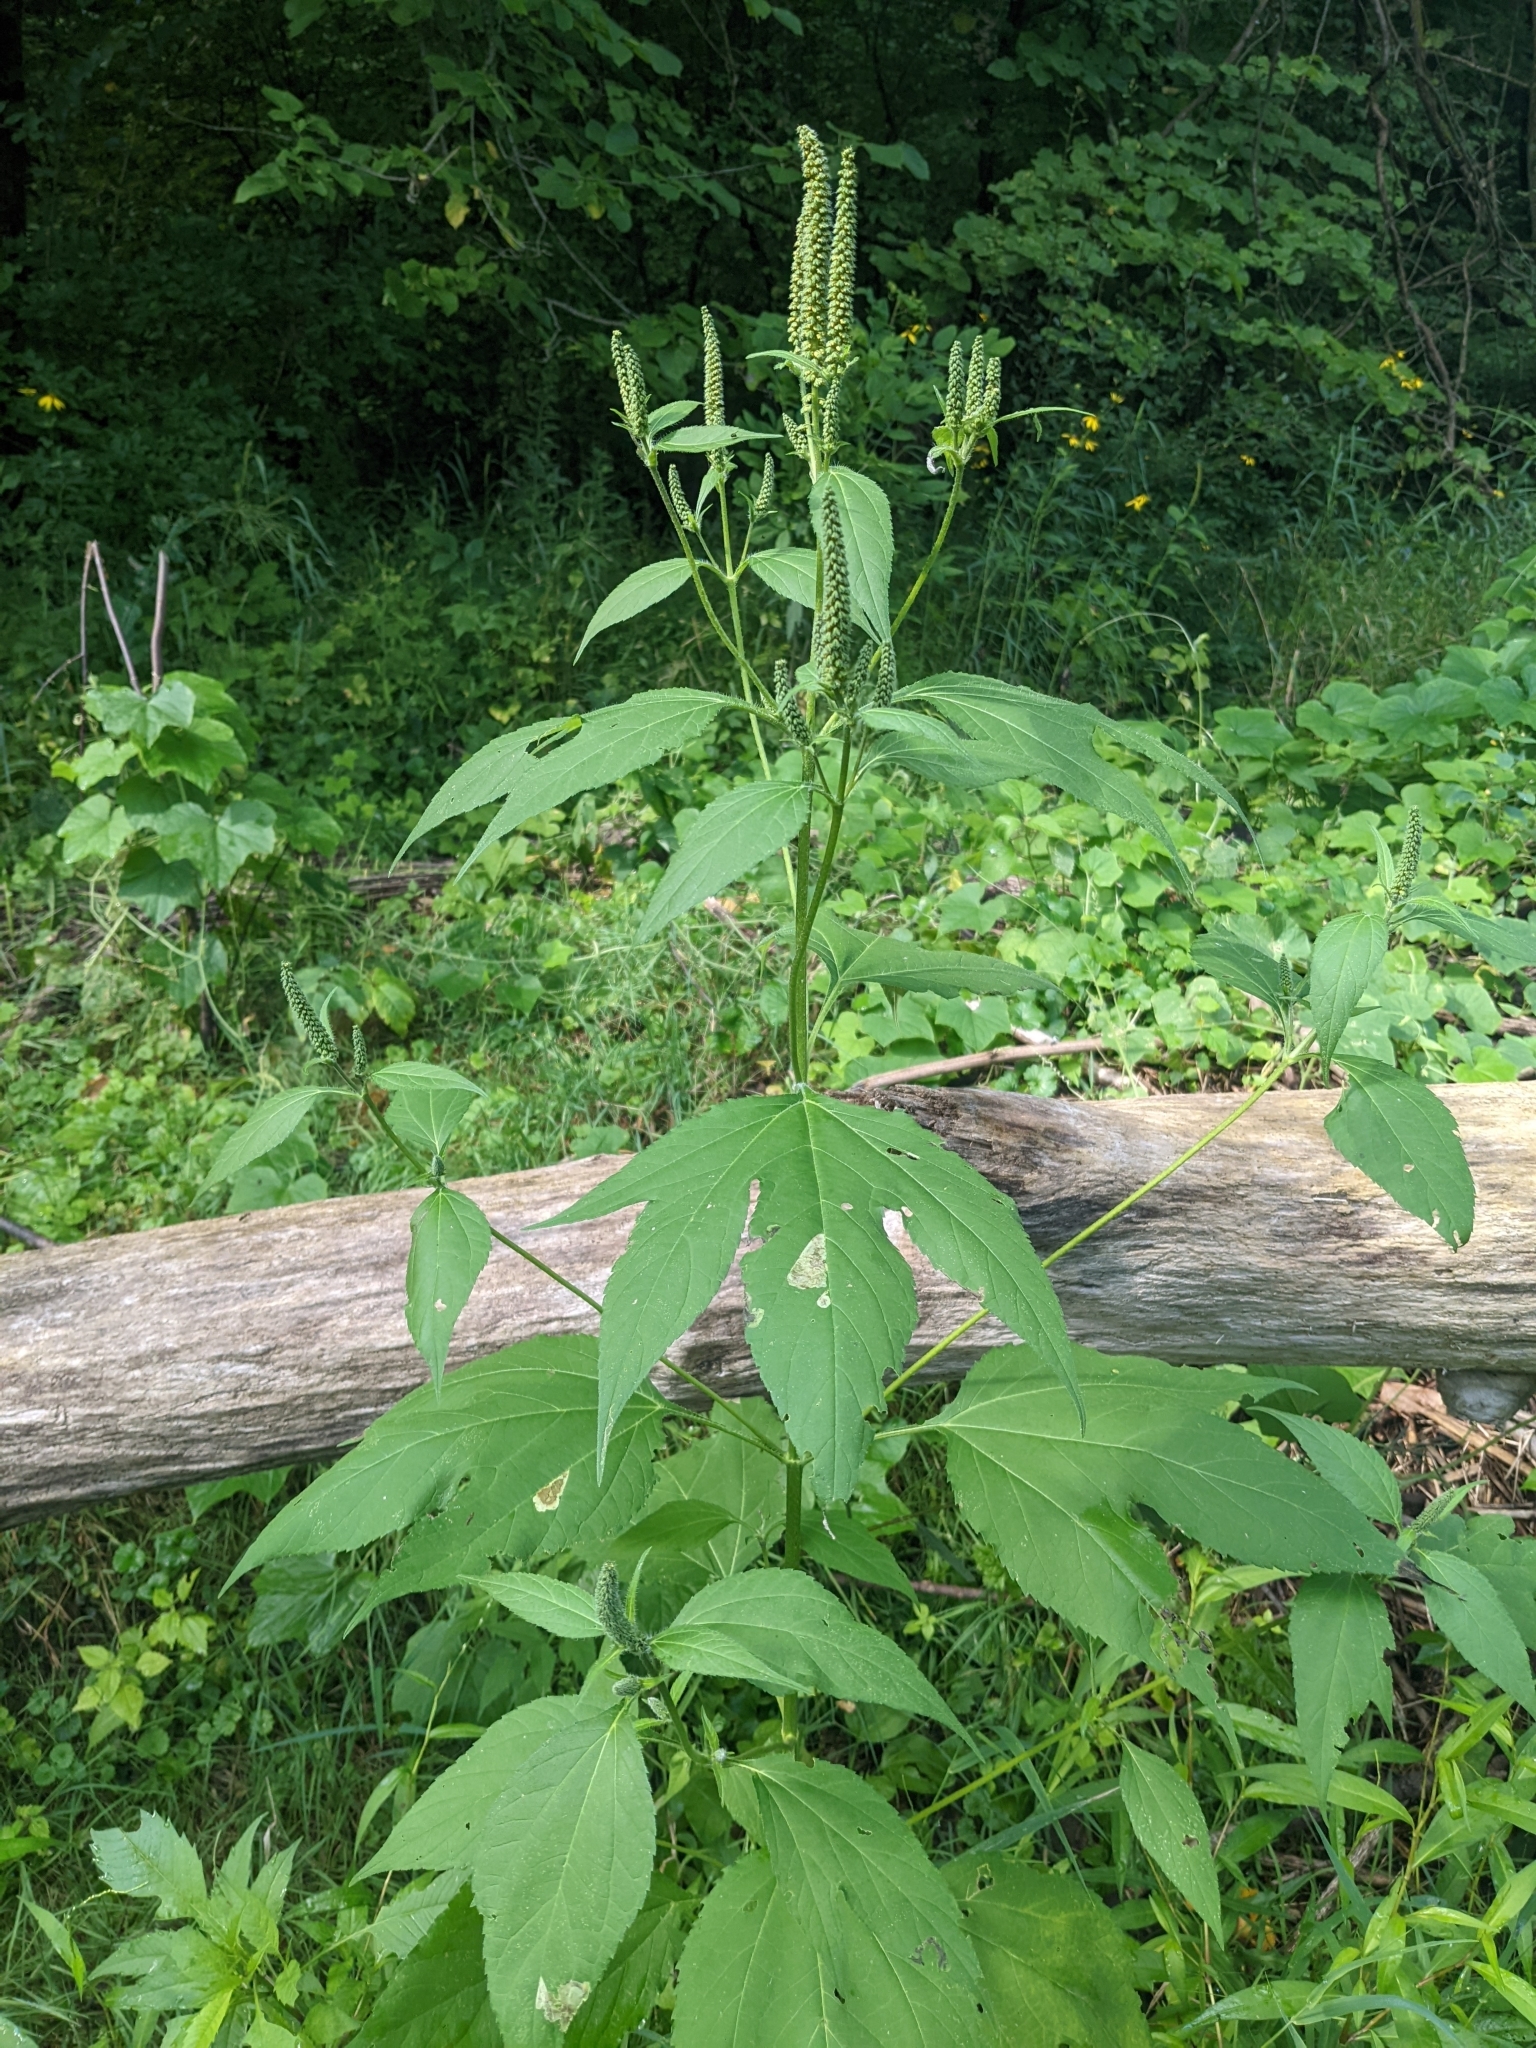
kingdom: Plantae
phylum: Tracheophyta
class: Magnoliopsida
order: Asterales
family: Asteraceae
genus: Ambrosia
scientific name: Ambrosia trifida
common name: Giant ragweed
